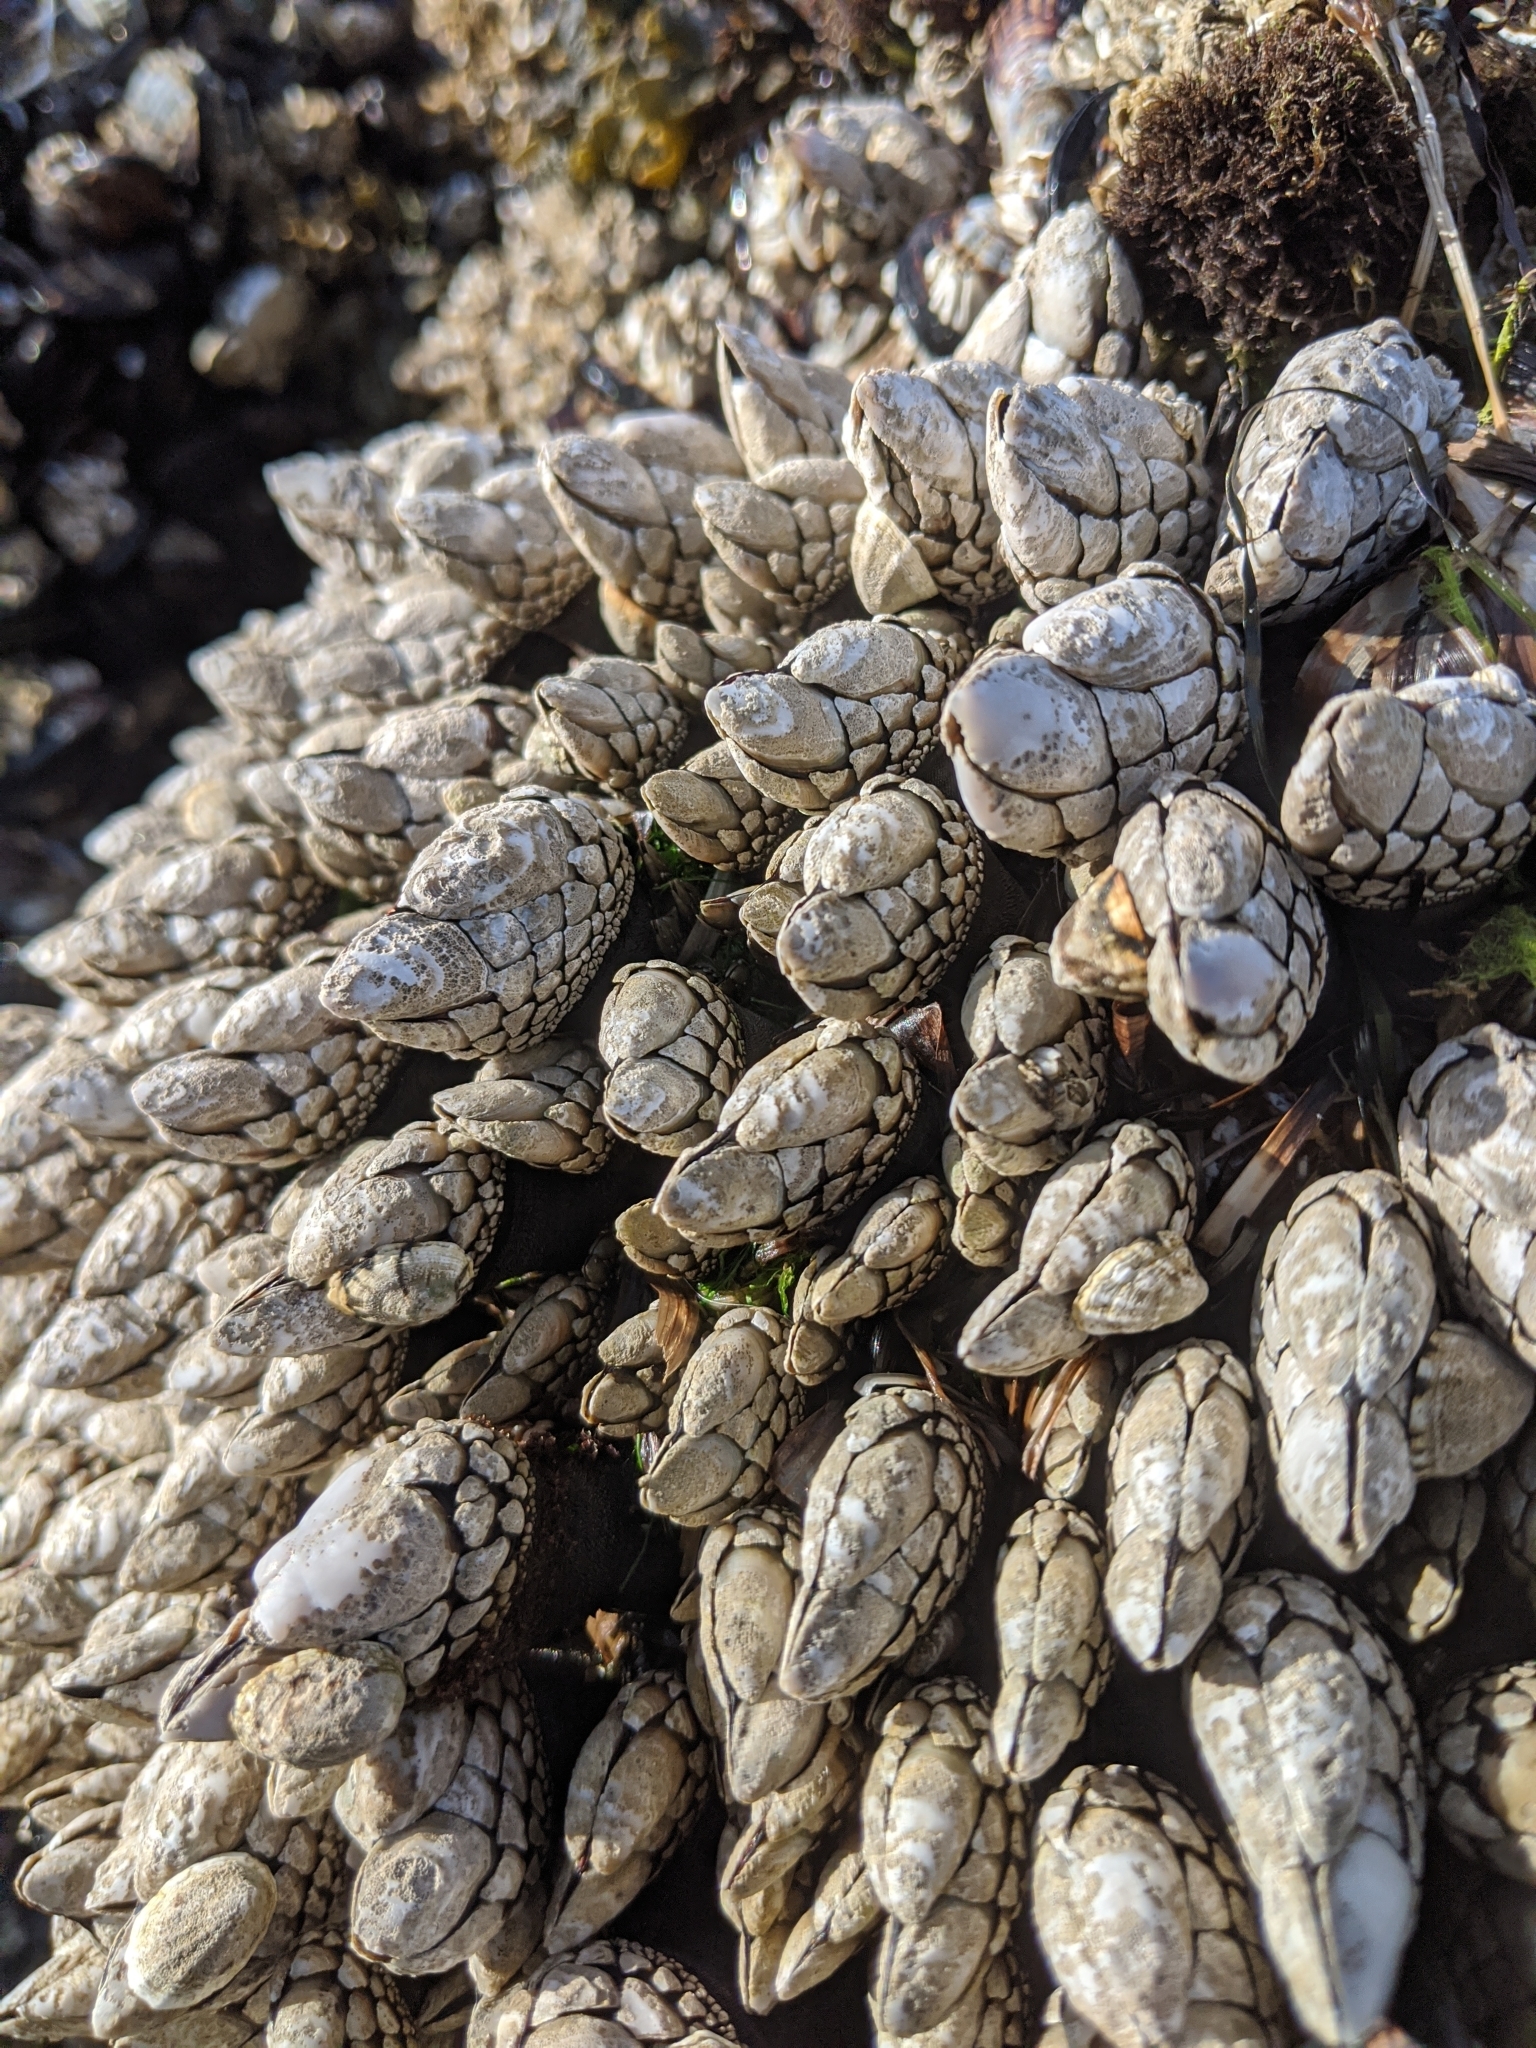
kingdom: Animalia
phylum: Arthropoda
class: Maxillopoda
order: Pedunculata
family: Pollicipedidae
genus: Pollicipes
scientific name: Pollicipes polymerus
